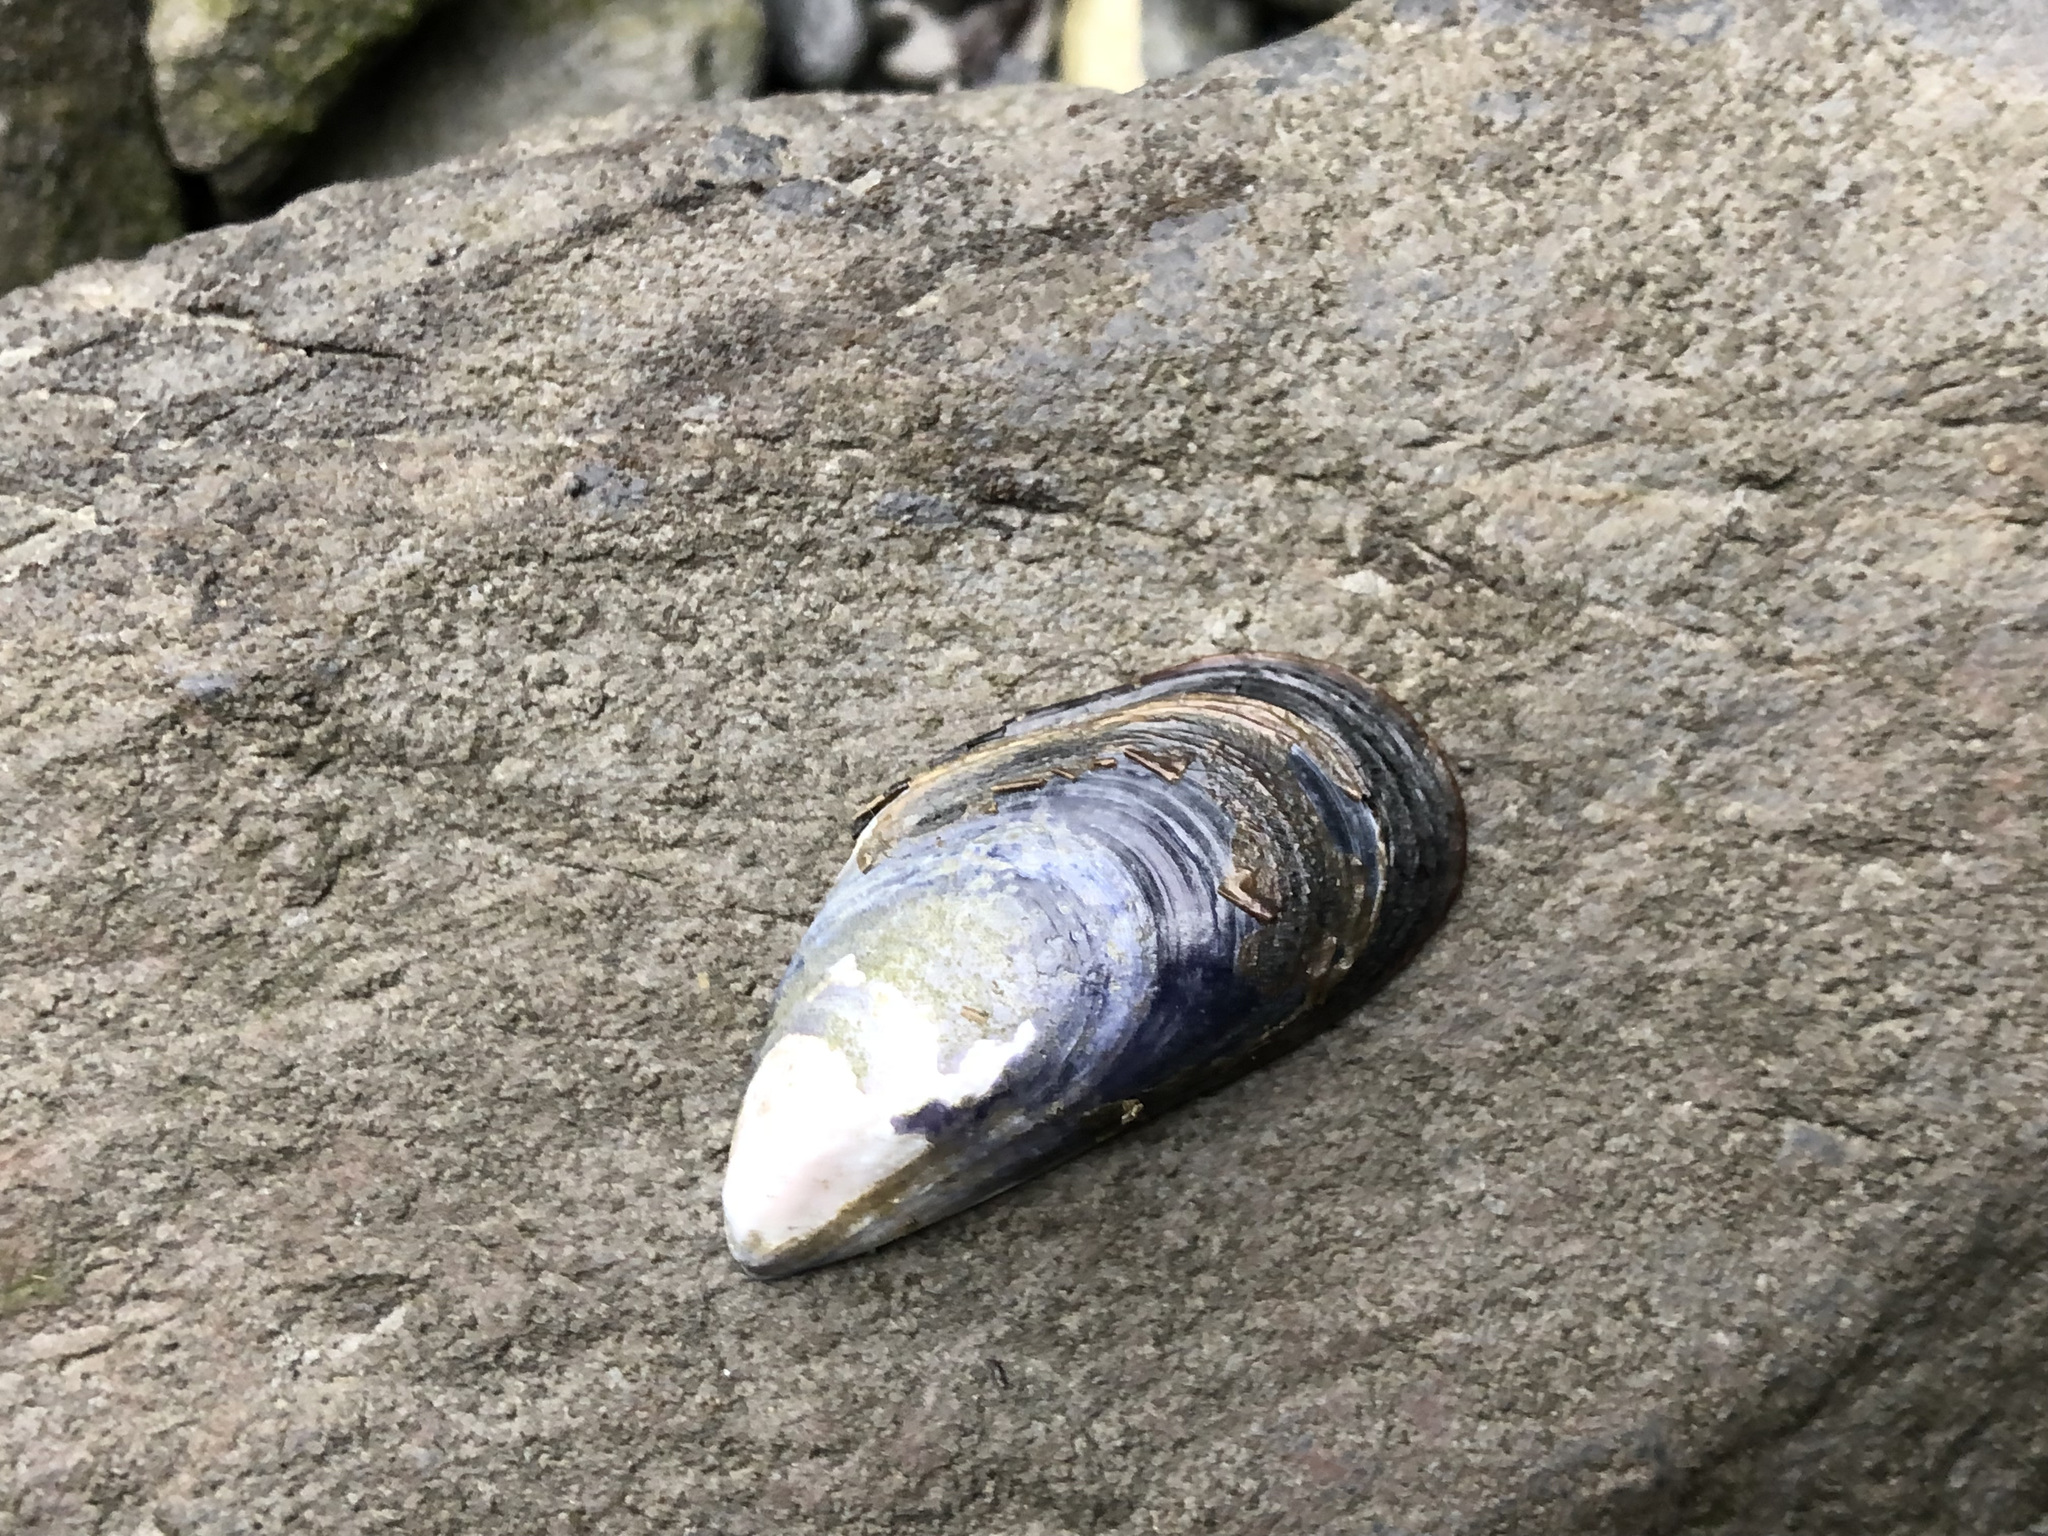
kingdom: Animalia
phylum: Mollusca
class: Bivalvia
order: Mytilida
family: Mytilidae
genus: Mytilus
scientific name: Mytilus trossulus
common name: Northern blue mussel
